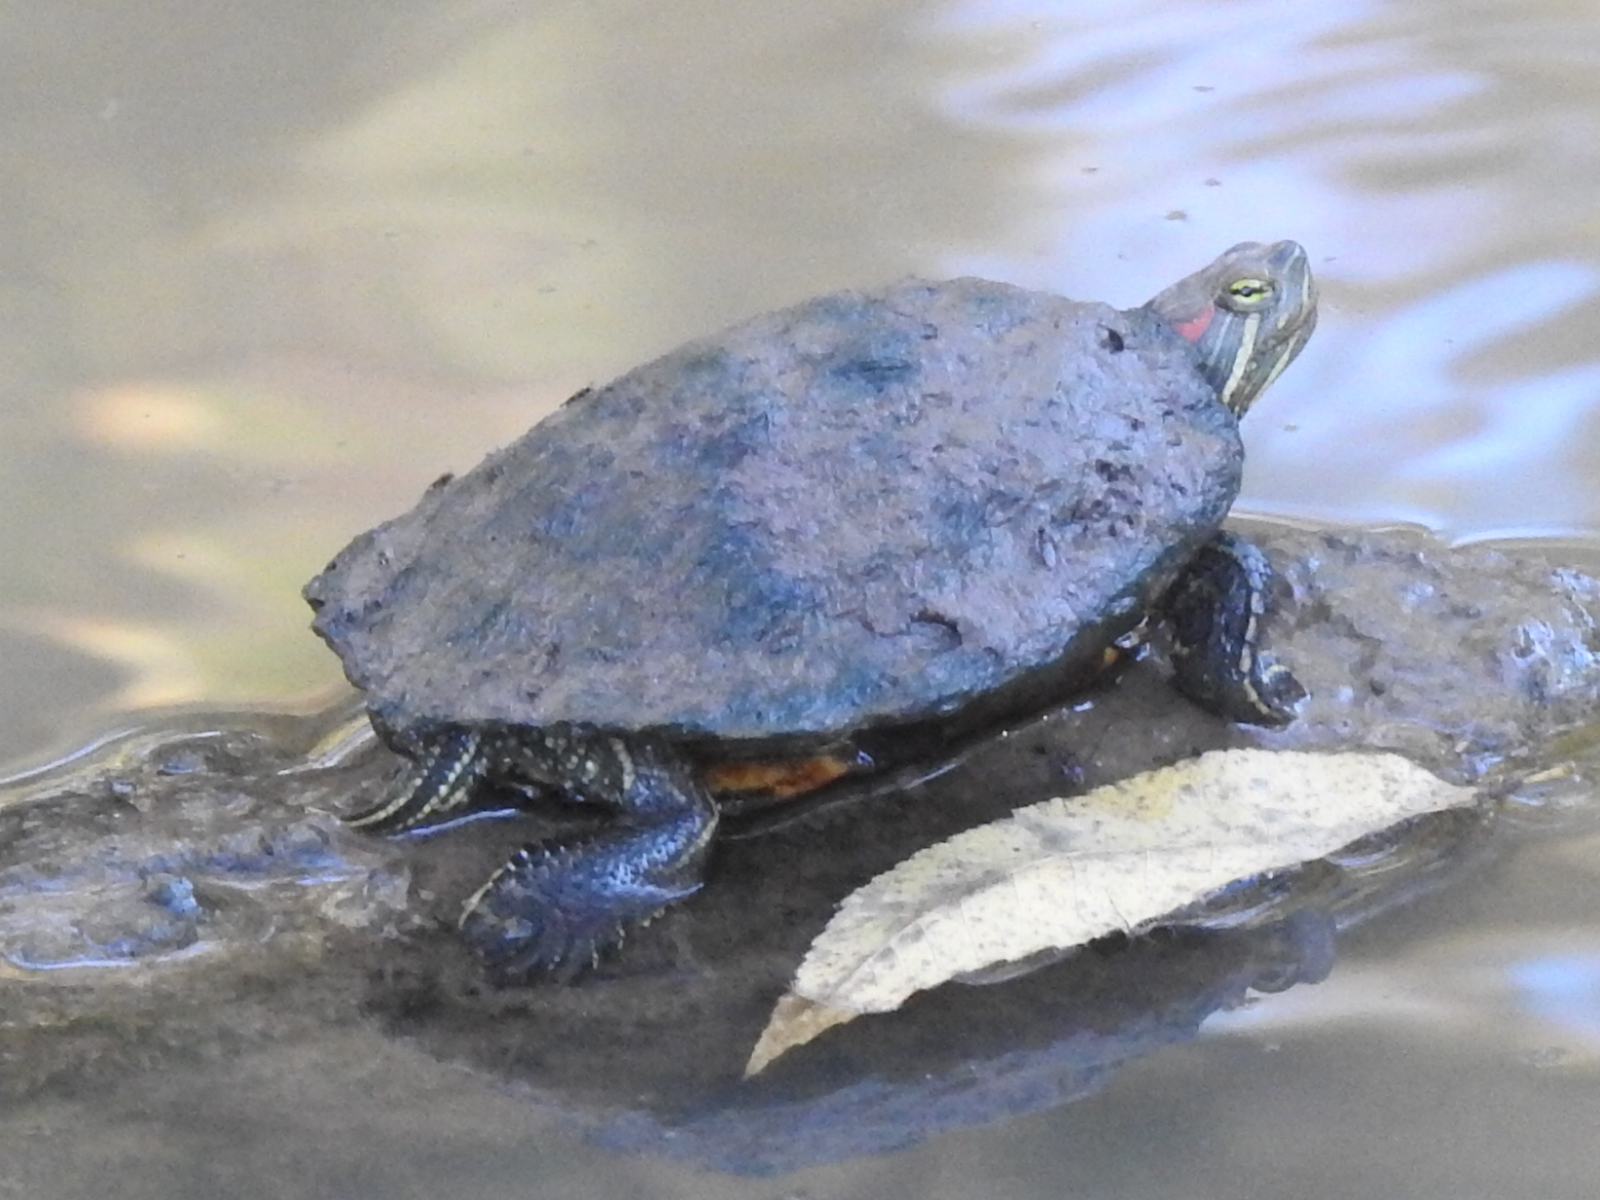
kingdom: Animalia
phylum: Chordata
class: Testudines
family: Emydidae
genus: Trachemys
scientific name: Trachemys scripta
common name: Slider
